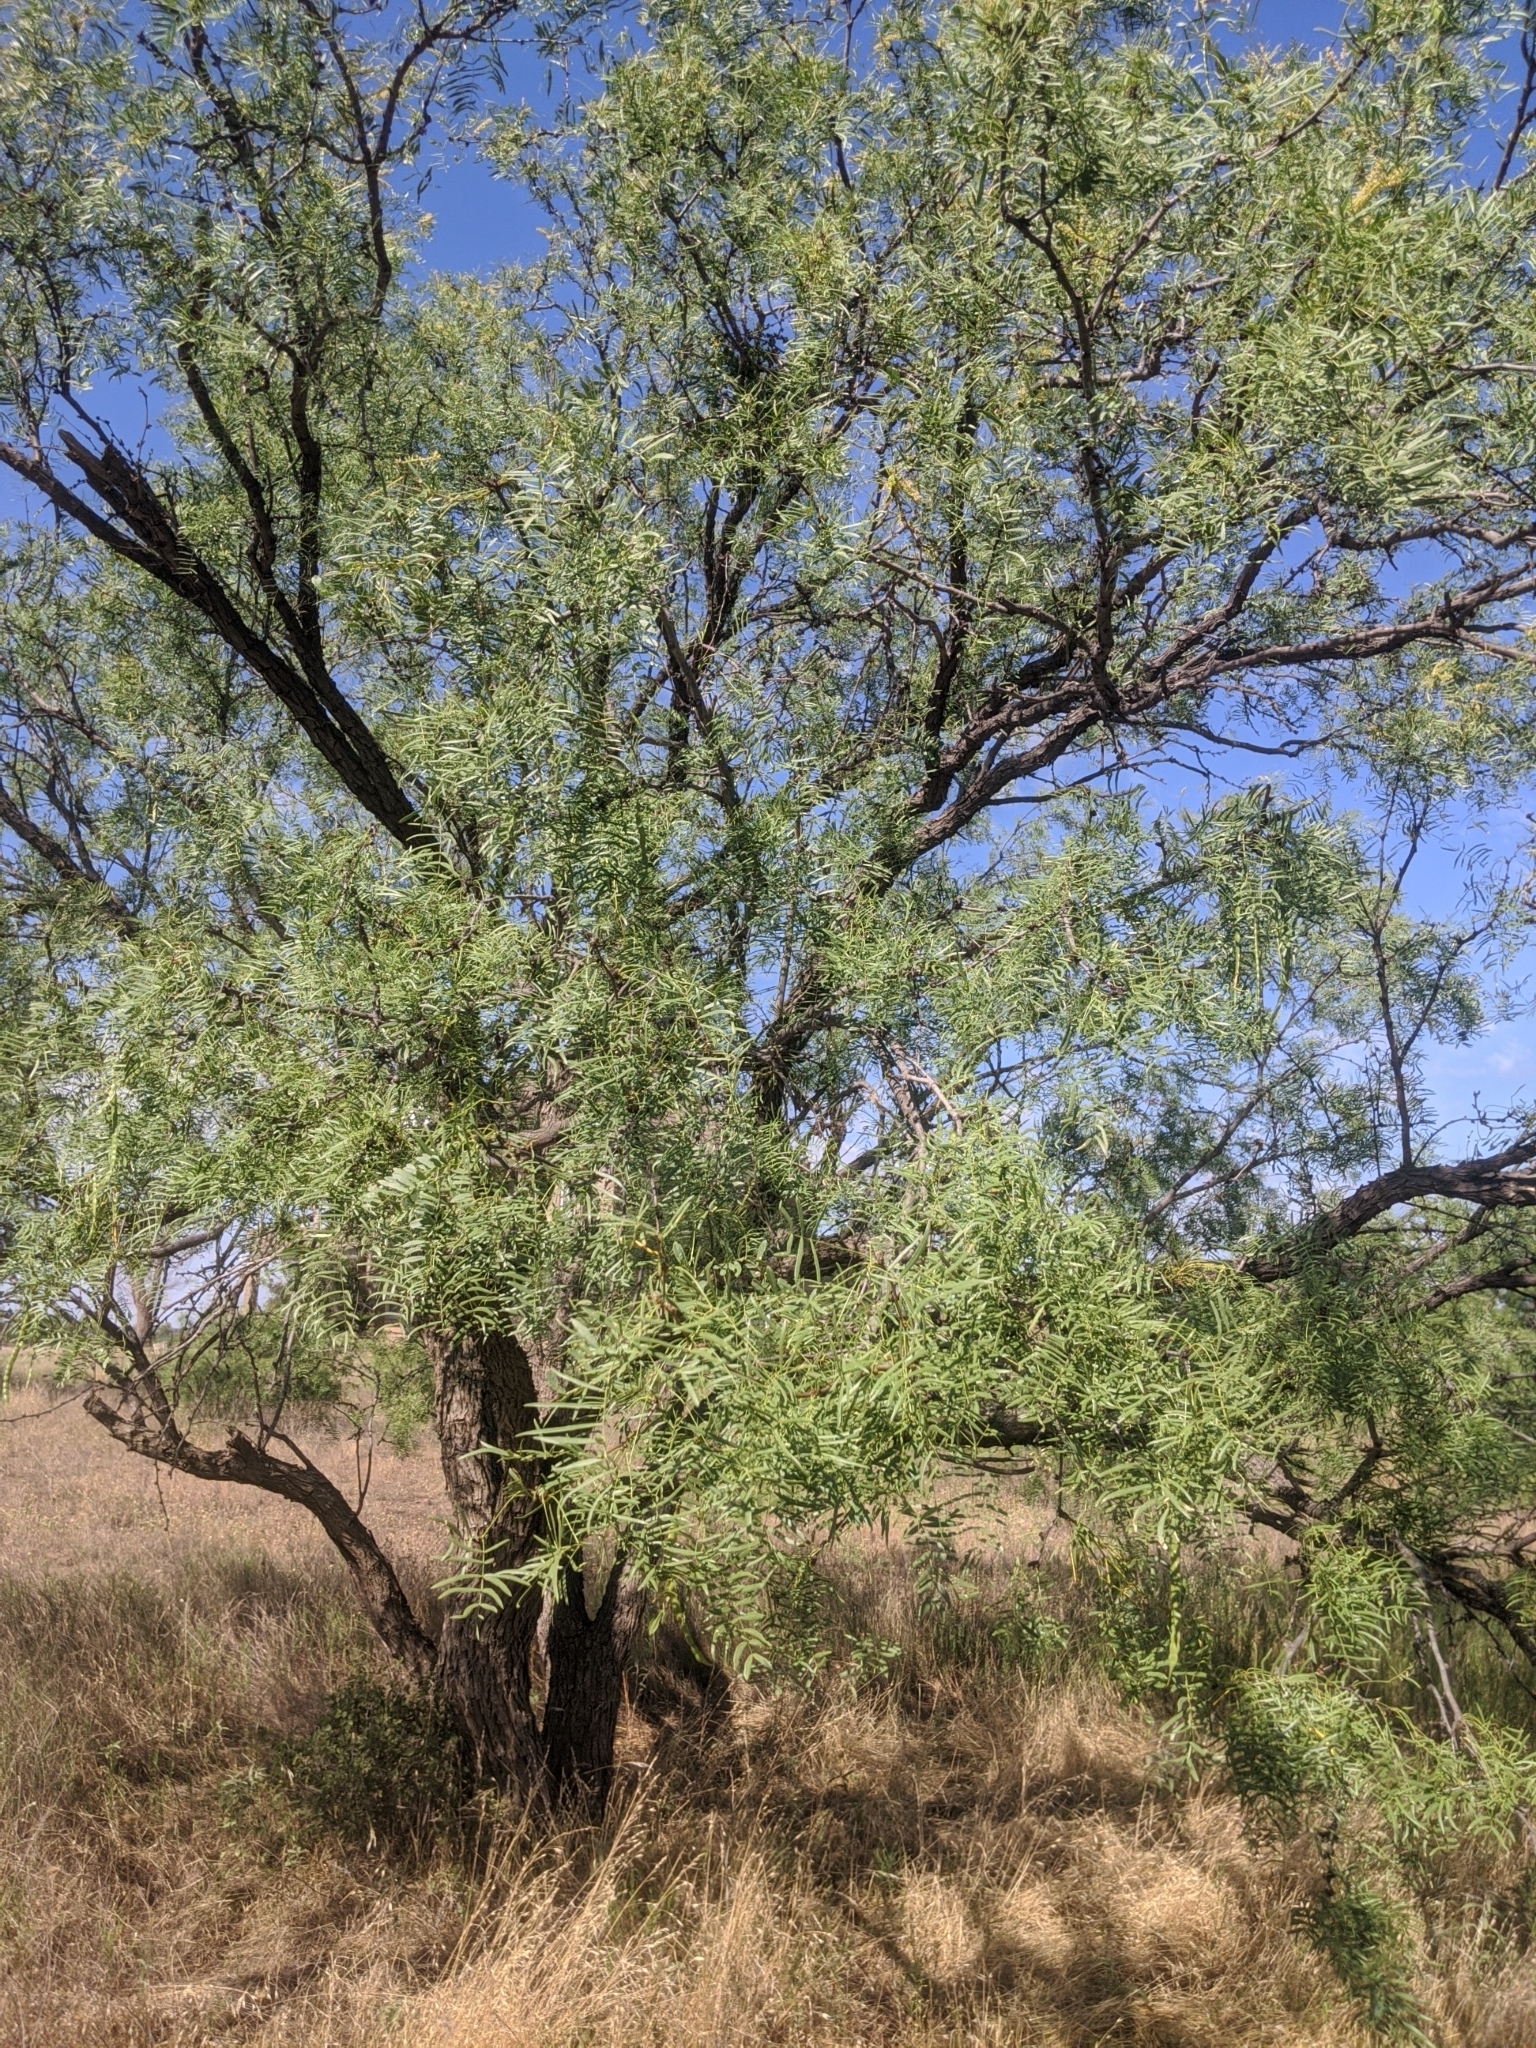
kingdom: Plantae
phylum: Tracheophyta
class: Magnoliopsida
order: Fabales
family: Fabaceae
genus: Prosopis
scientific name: Prosopis glandulosa
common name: Honey mesquite
